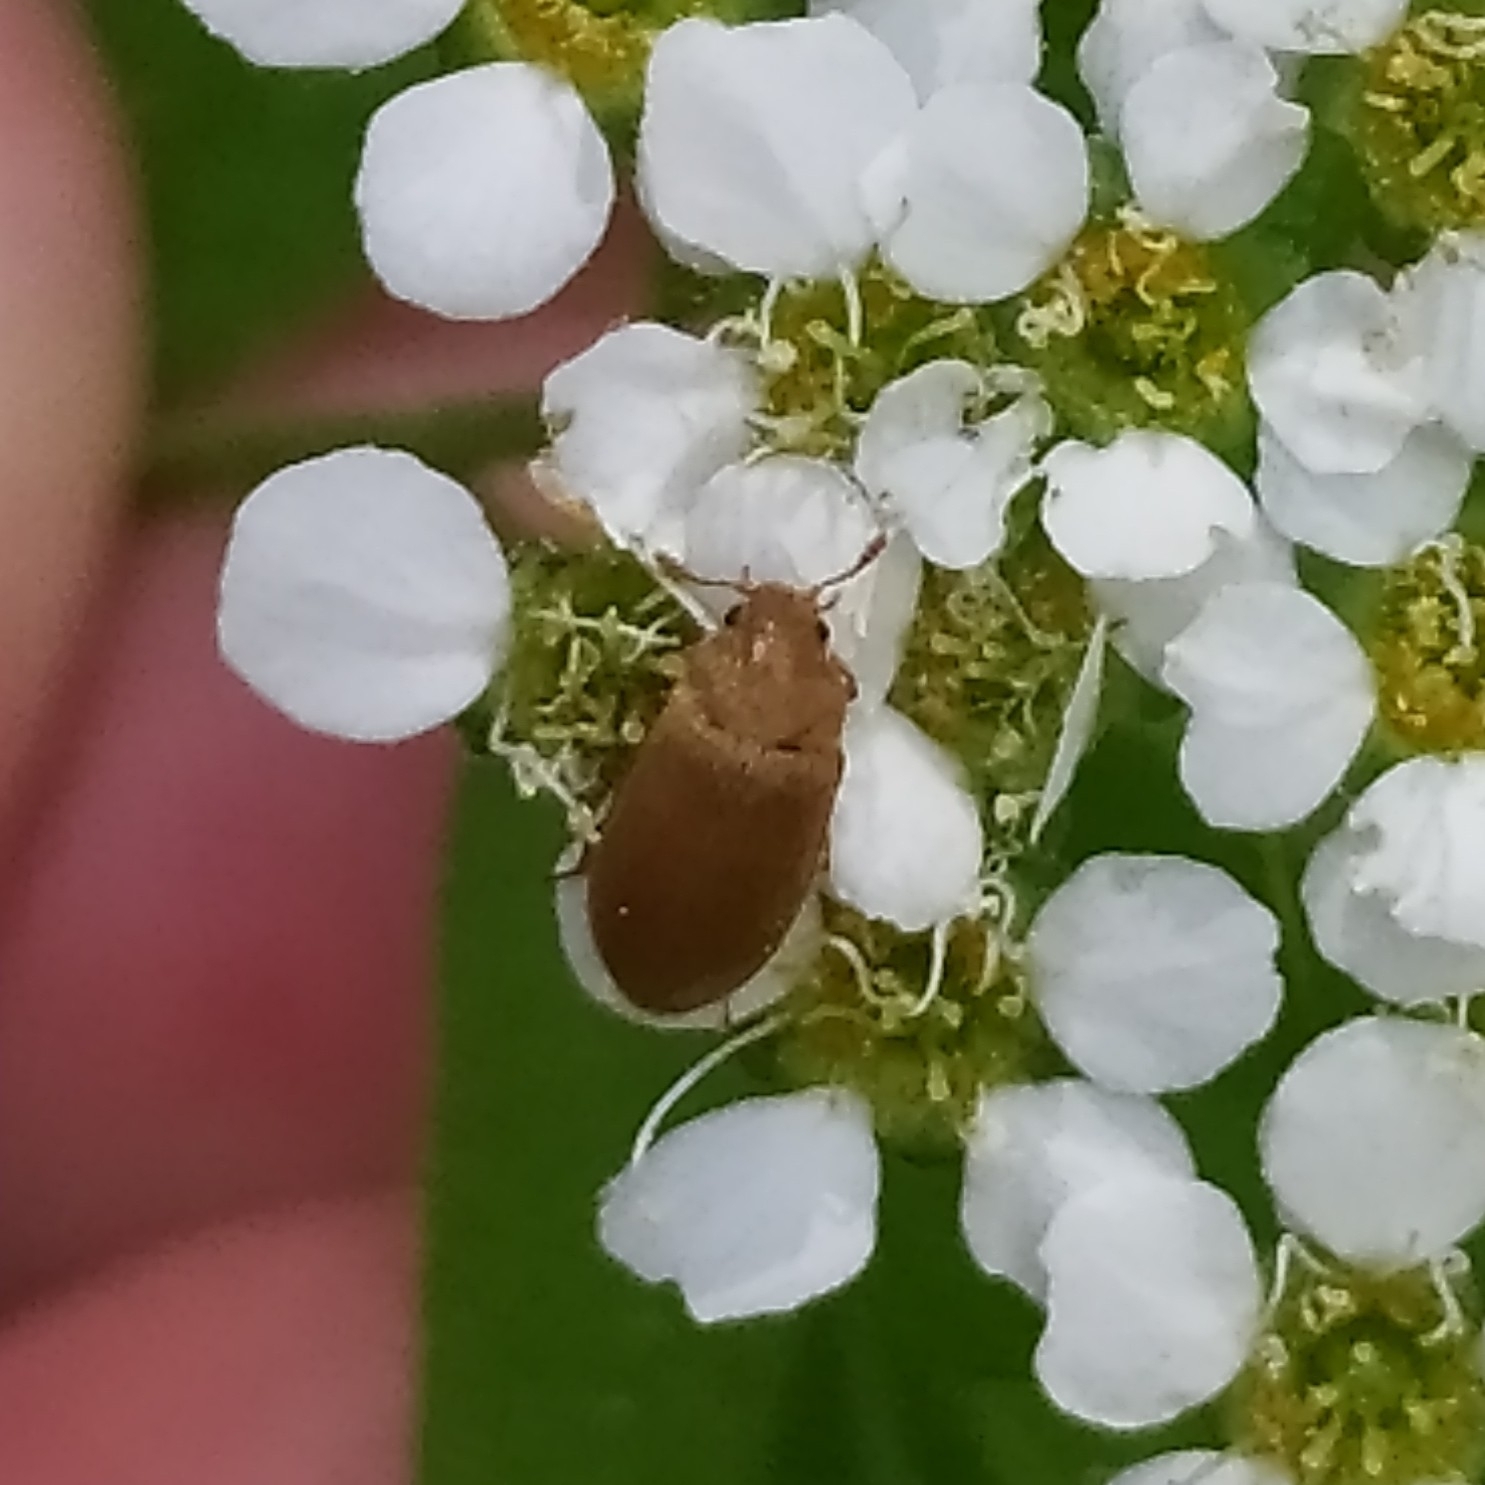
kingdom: Animalia
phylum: Arthropoda
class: Insecta
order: Coleoptera
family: Byturidae
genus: Byturus
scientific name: Byturus tomentosus
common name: Beetle
